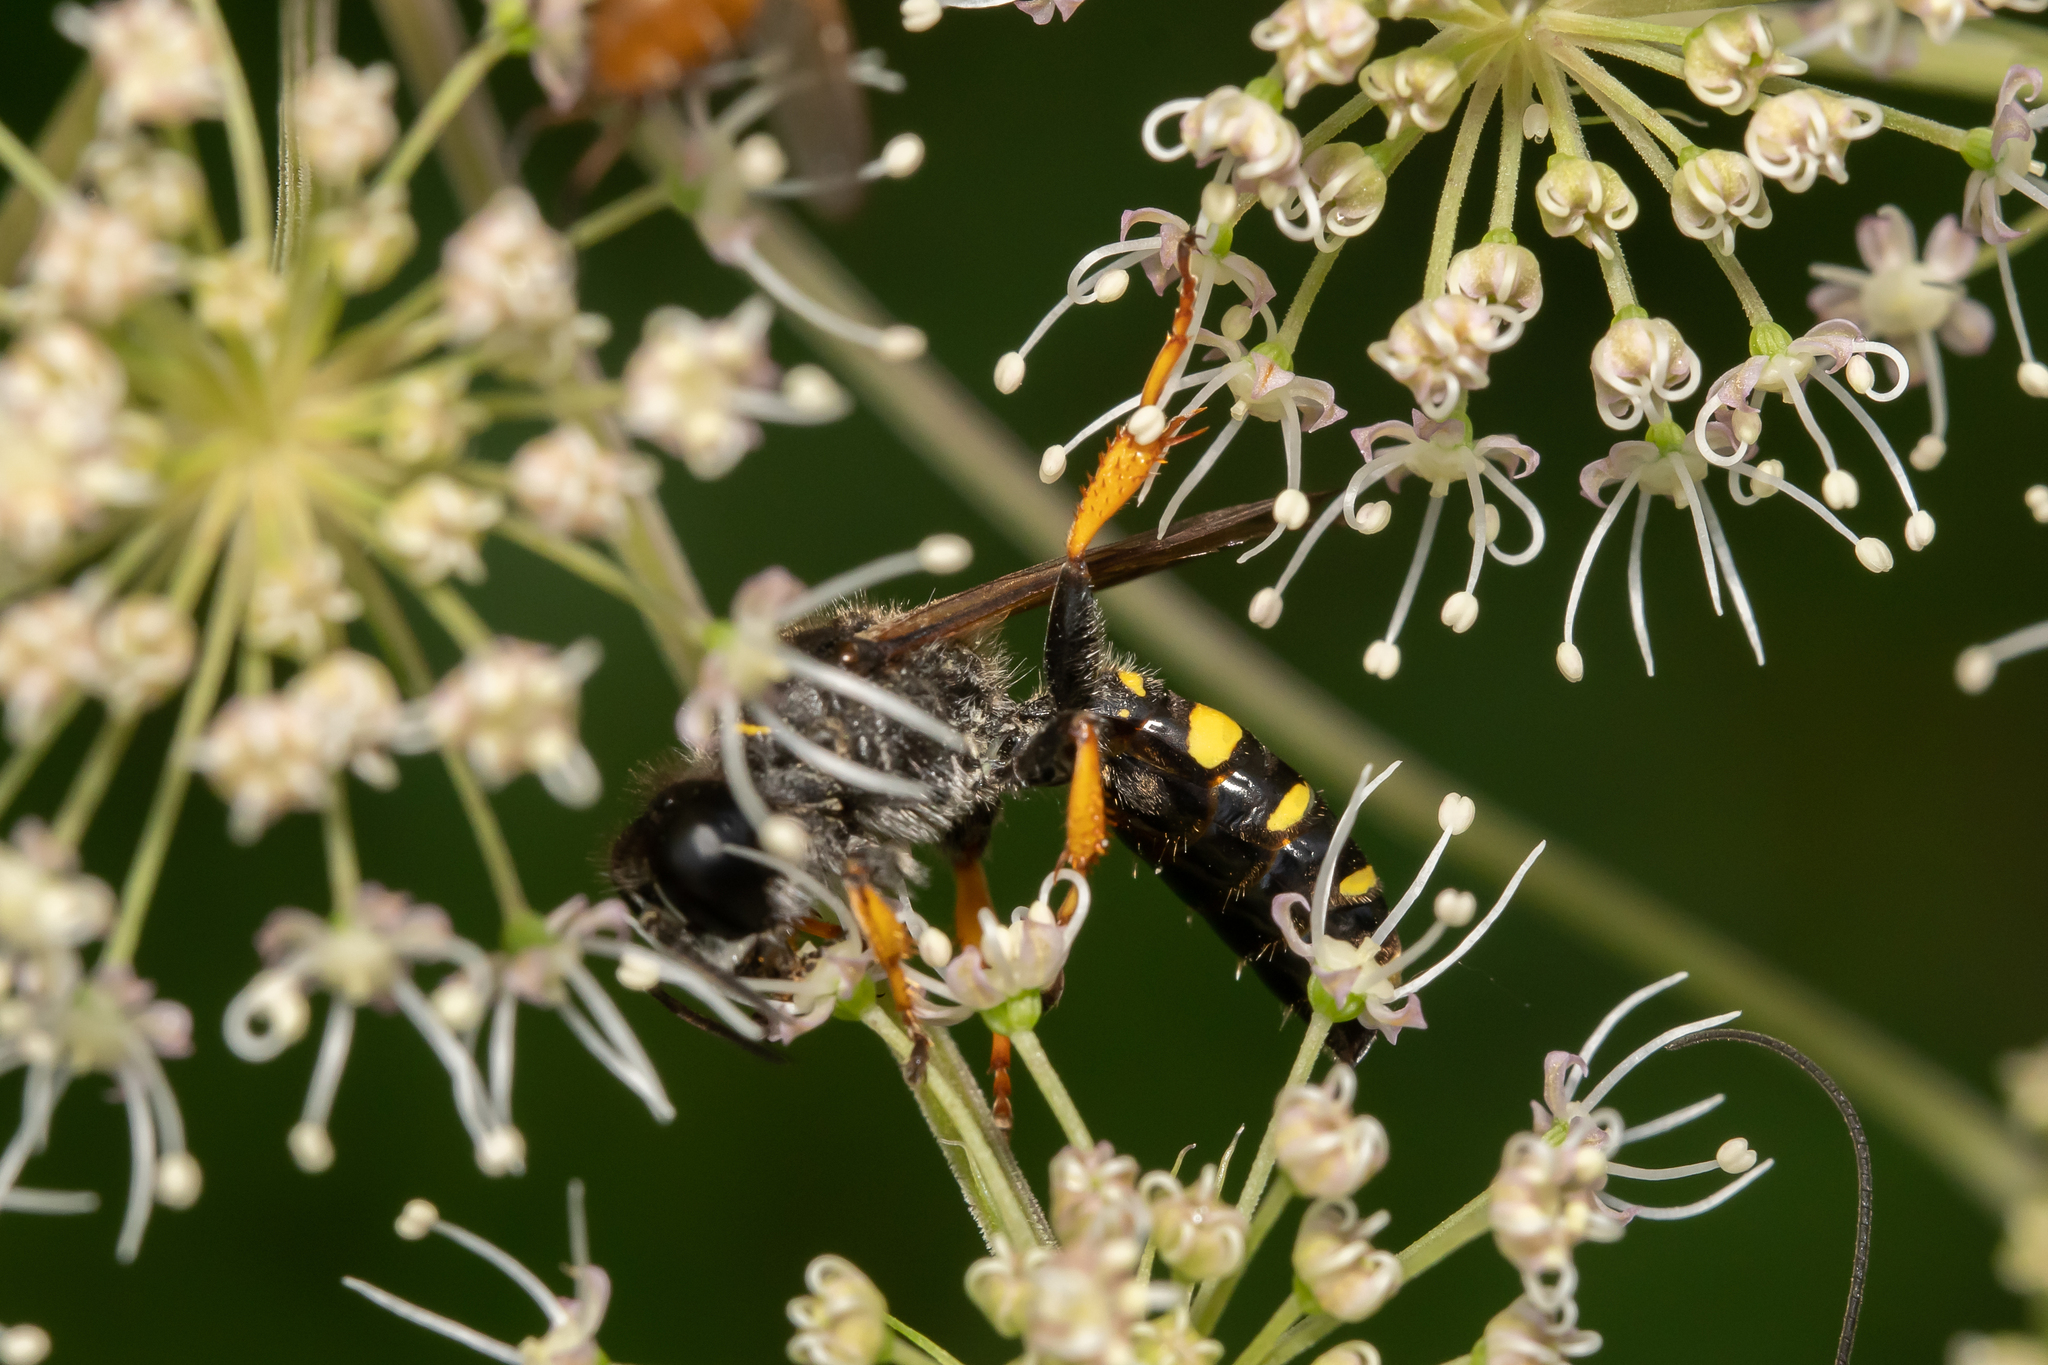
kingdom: Animalia
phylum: Arthropoda
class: Insecta
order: Hymenoptera
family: Crabronidae
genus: Crabro
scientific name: Crabro cribrarius
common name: Slender bodied digger wasp
